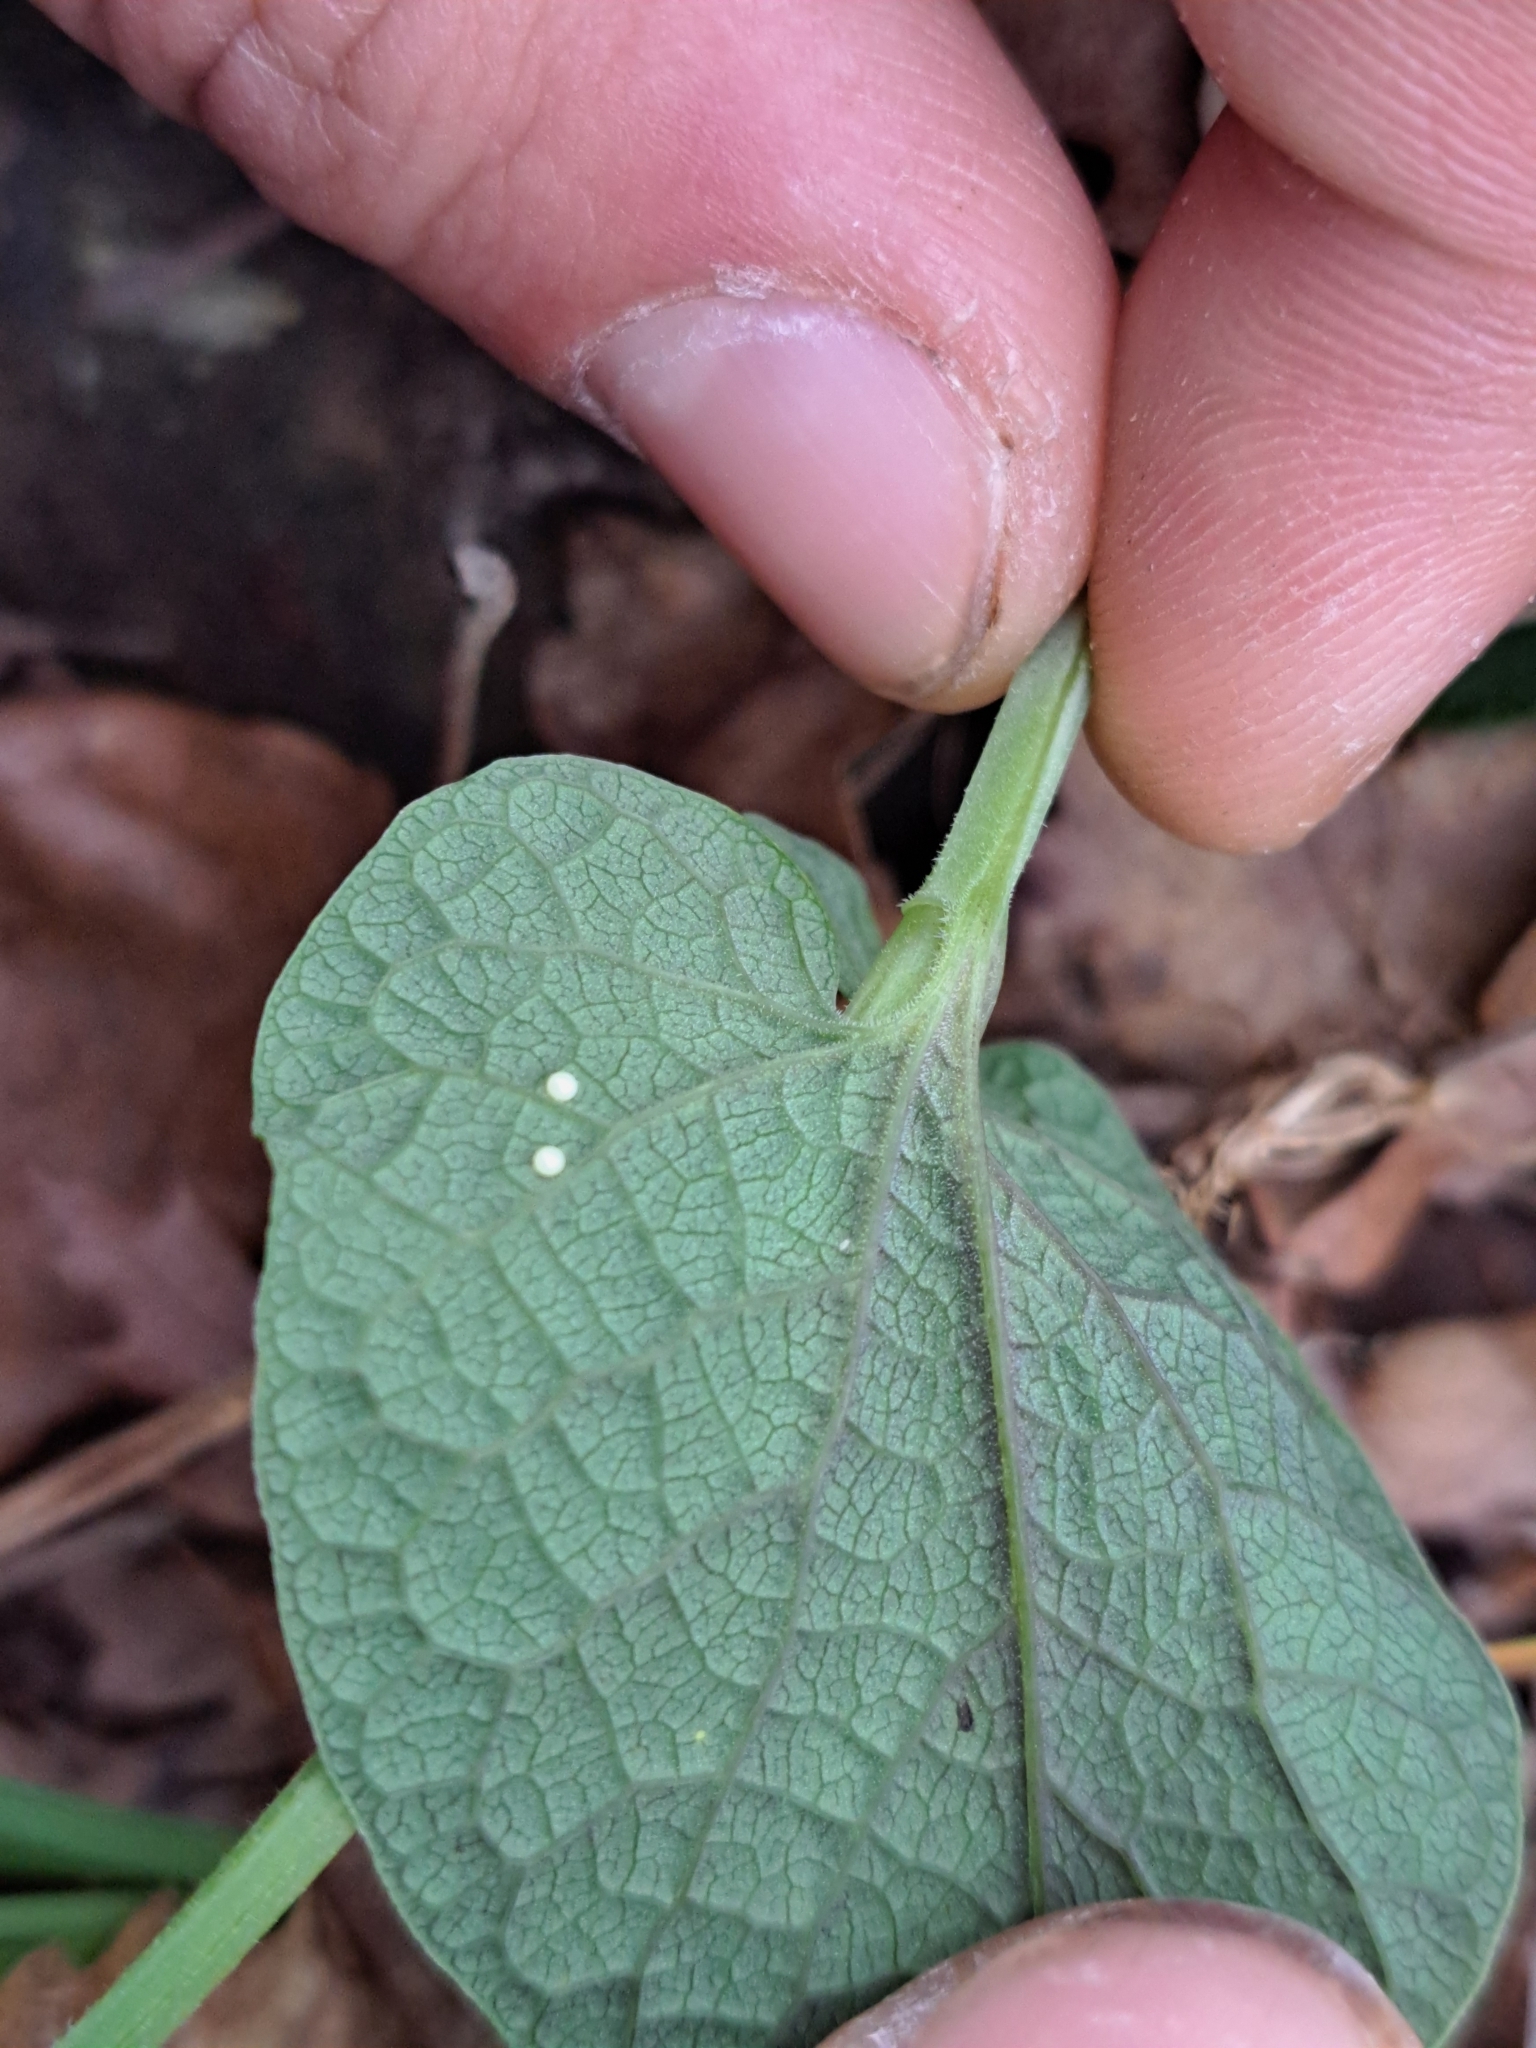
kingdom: Animalia
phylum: Arthropoda
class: Insecta
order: Lepidoptera
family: Papilionidae
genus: Zerynthia
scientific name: Zerynthia cassandra
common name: Italian festoon
